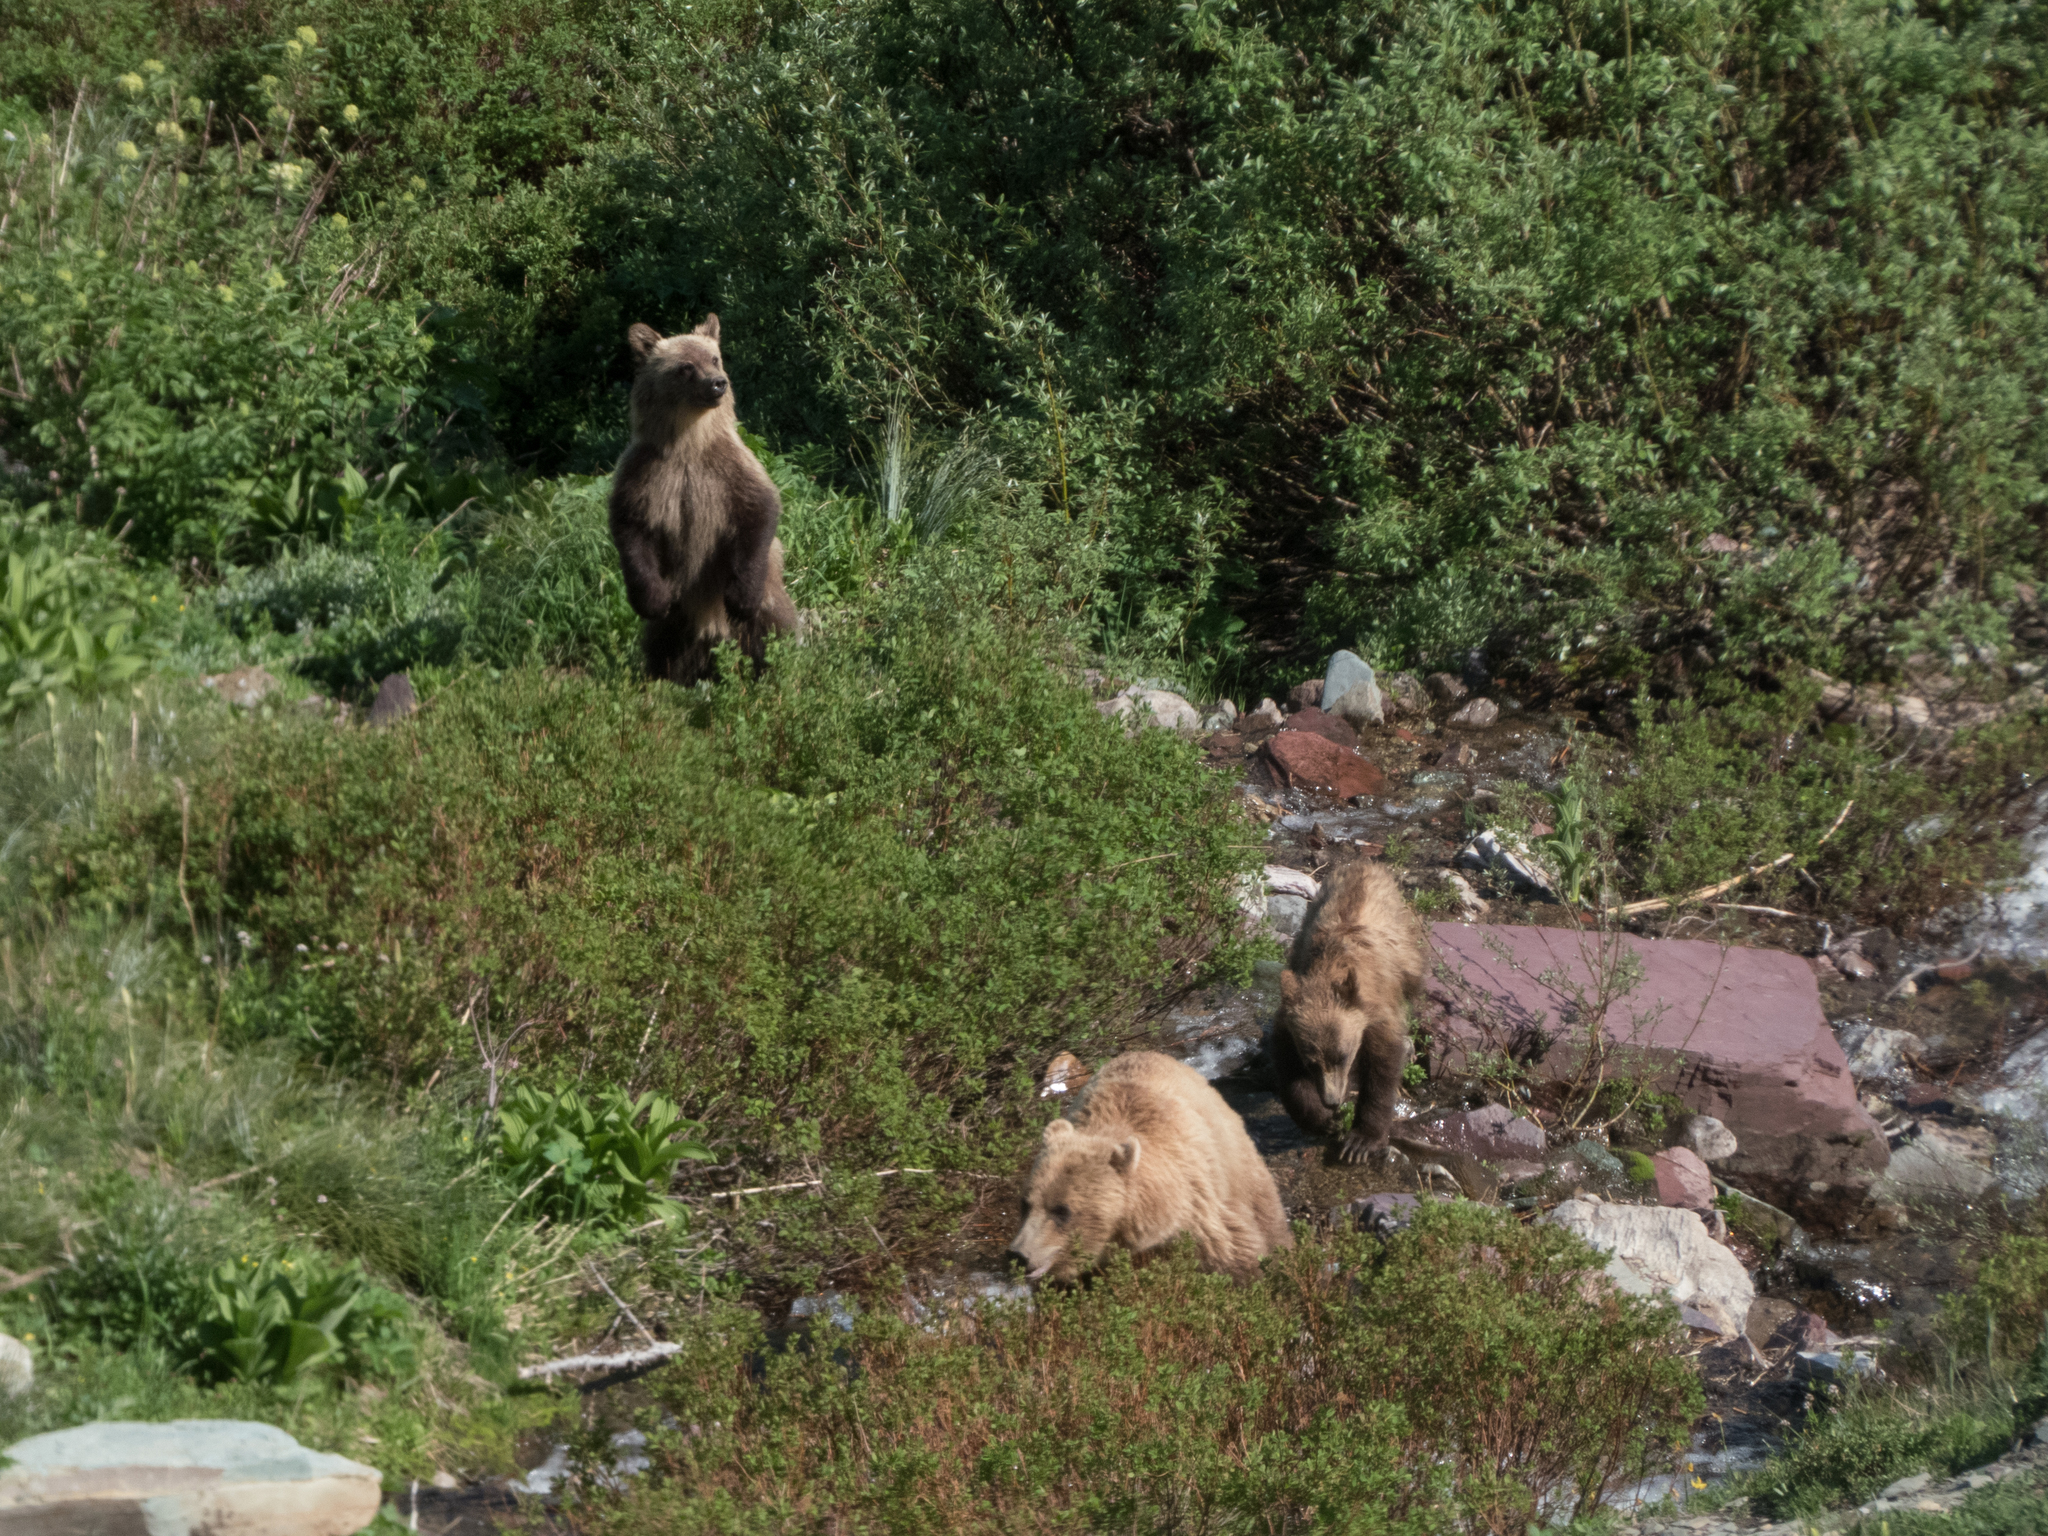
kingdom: Animalia
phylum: Chordata
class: Mammalia
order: Carnivora
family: Ursidae
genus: Ursus
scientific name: Ursus arctos
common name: Brown bear
